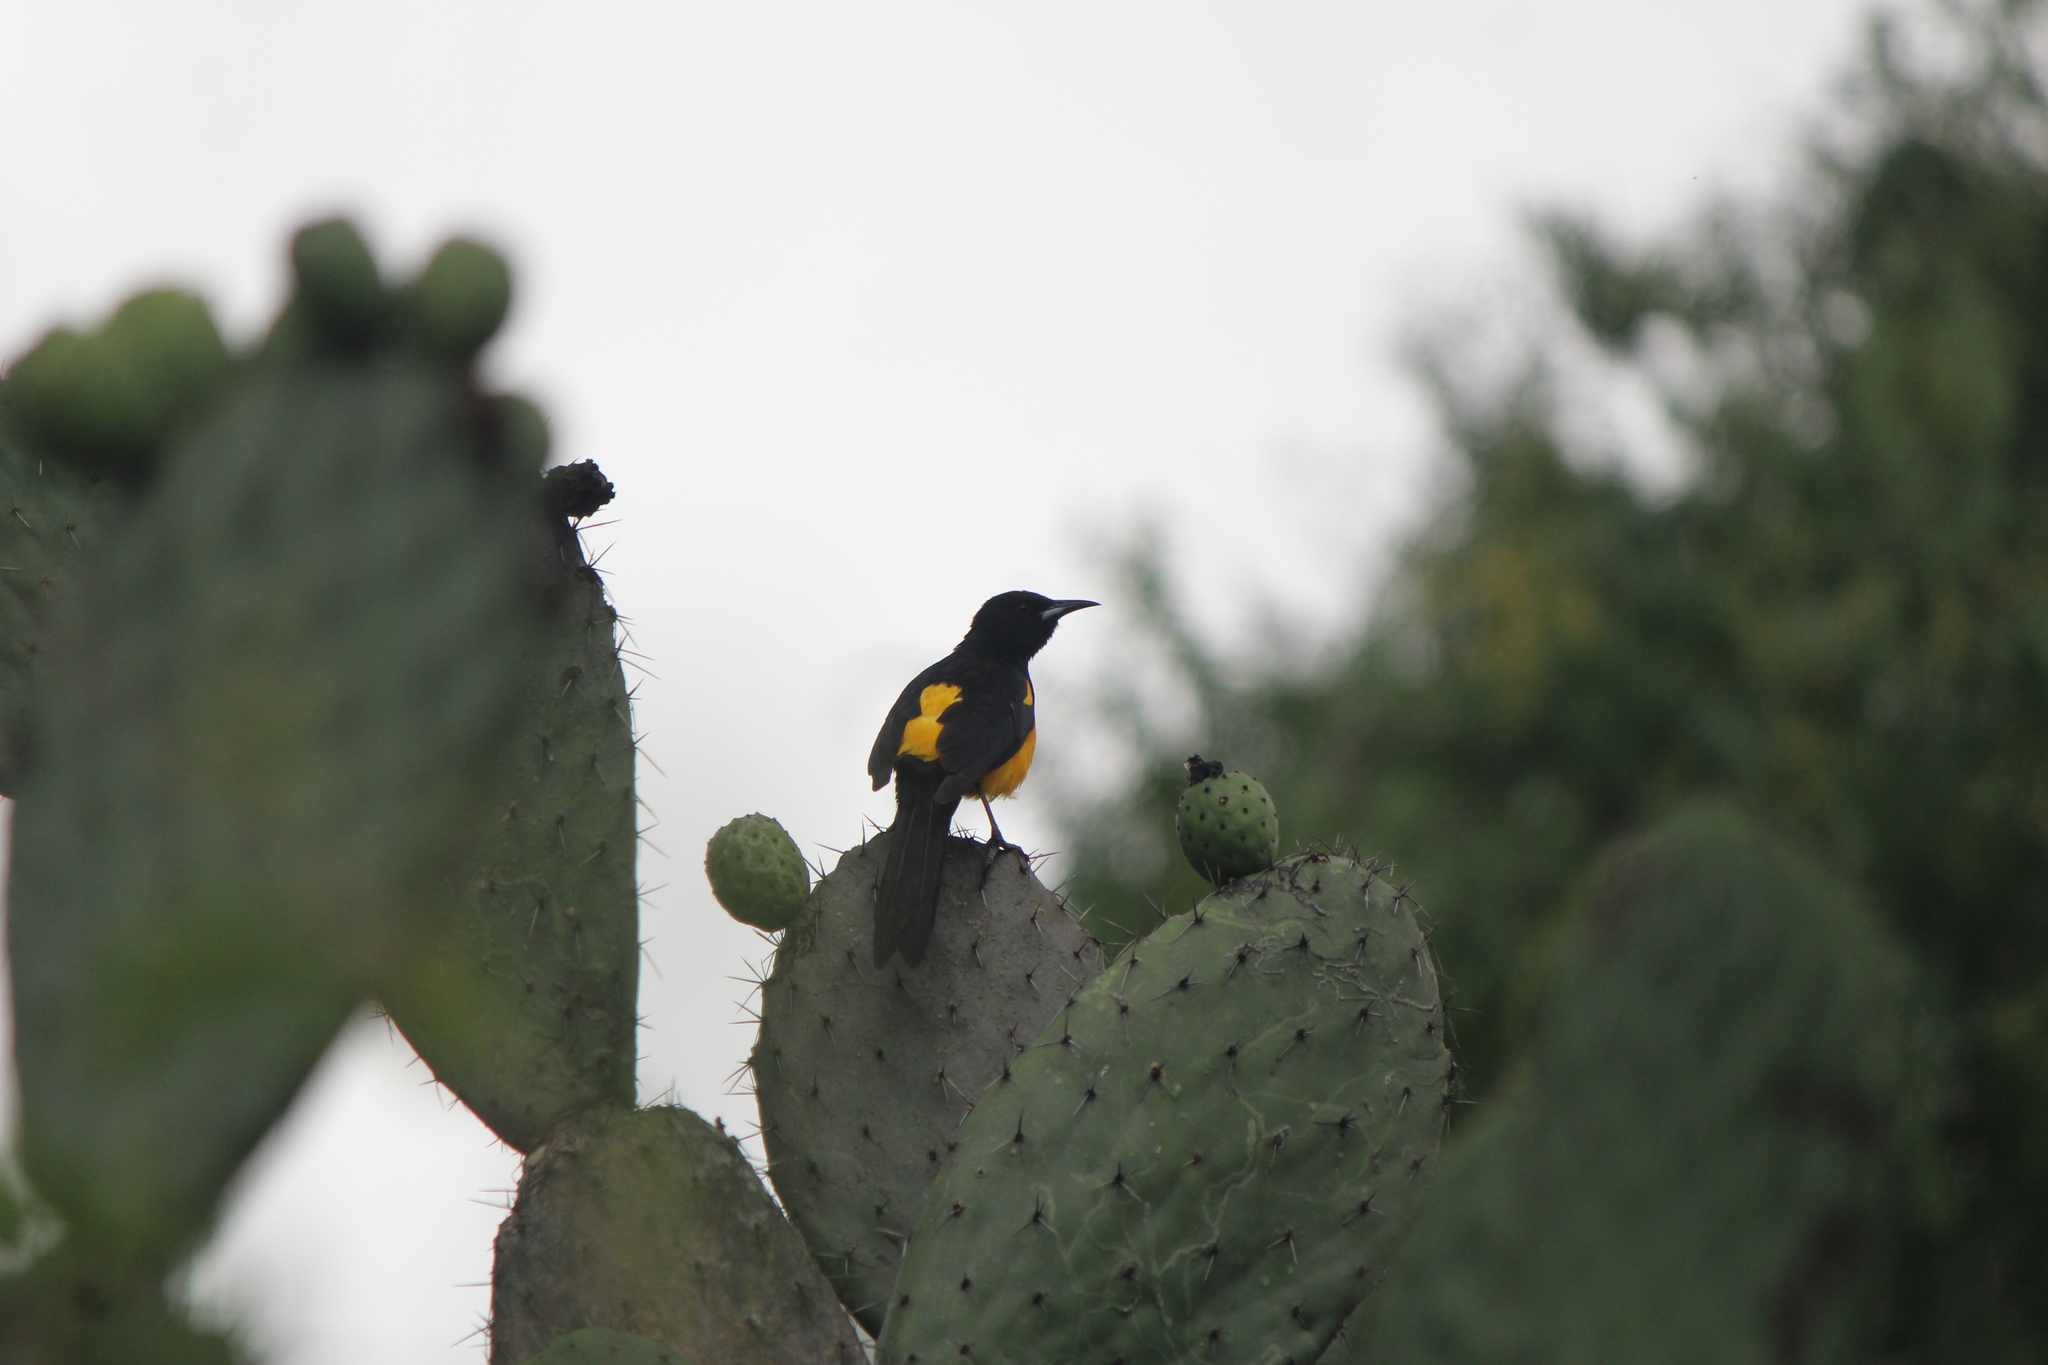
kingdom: Animalia
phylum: Chordata
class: Aves
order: Passeriformes
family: Icteridae
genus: Icterus
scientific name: Icterus wagleri
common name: Black-vented oriole
